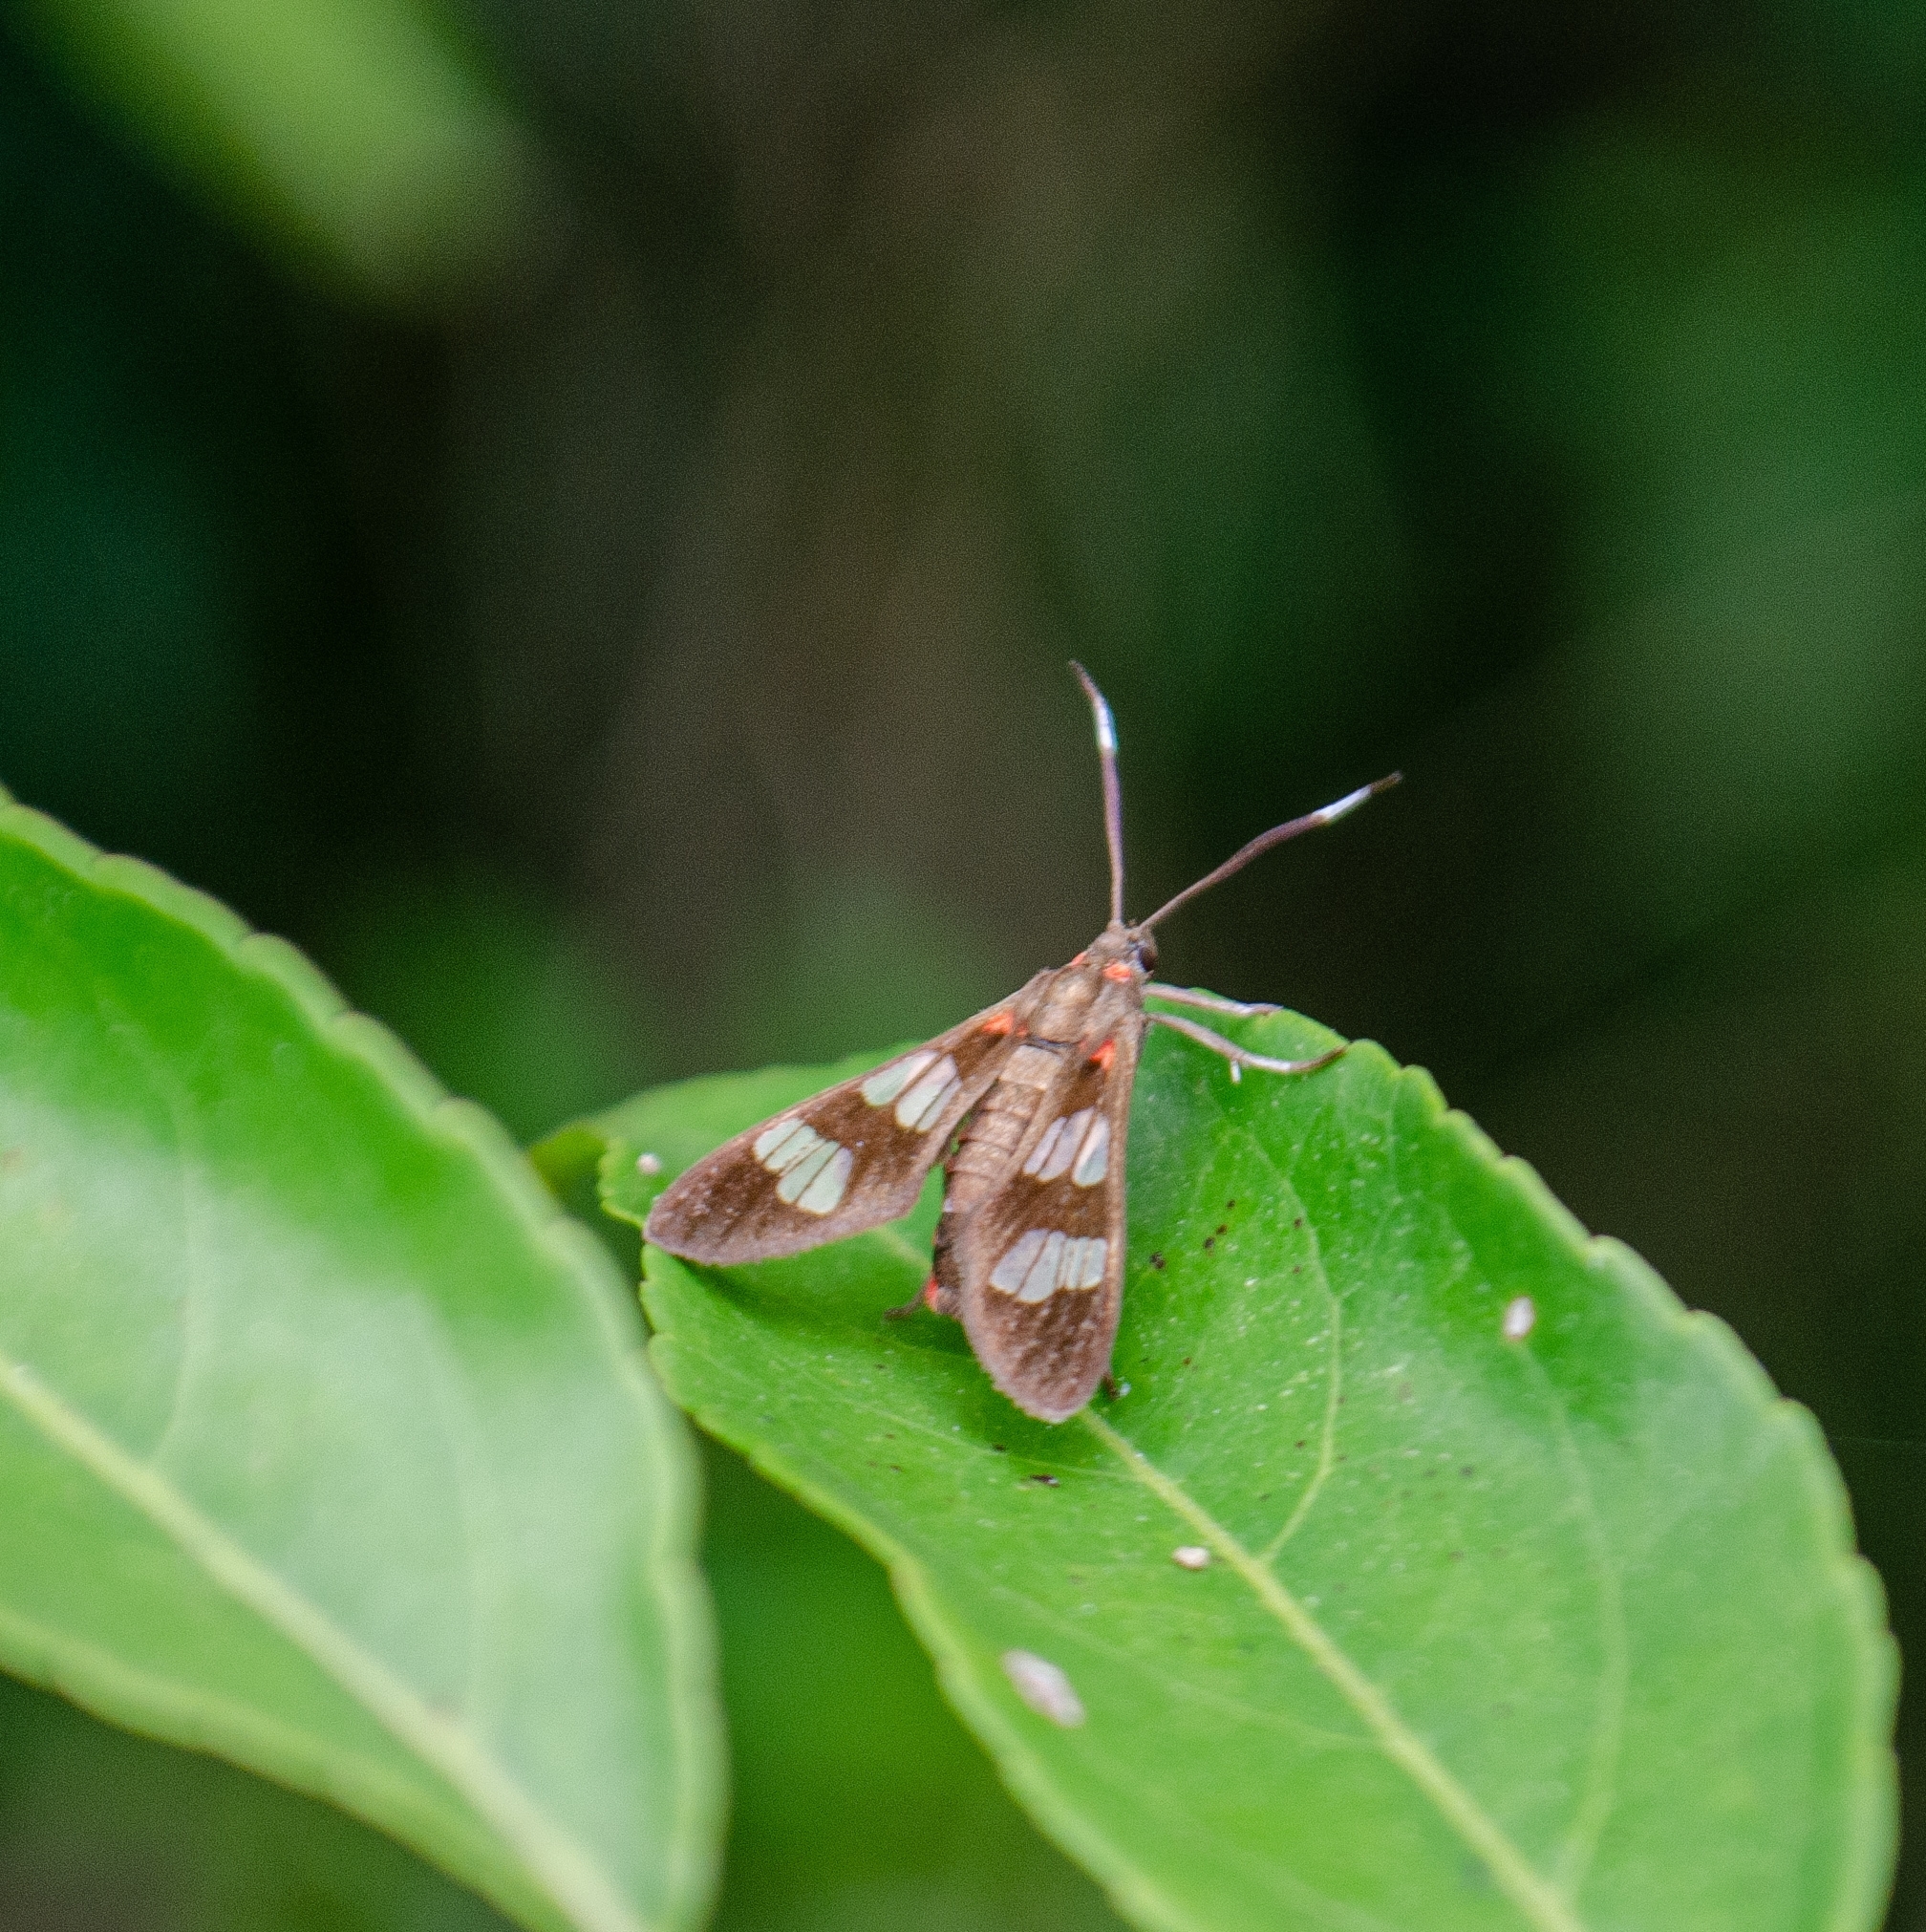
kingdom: Animalia
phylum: Arthropoda
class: Insecta
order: Lepidoptera
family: Erebidae
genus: Phoenicoprocta
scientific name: Phoenicoprocta teda
